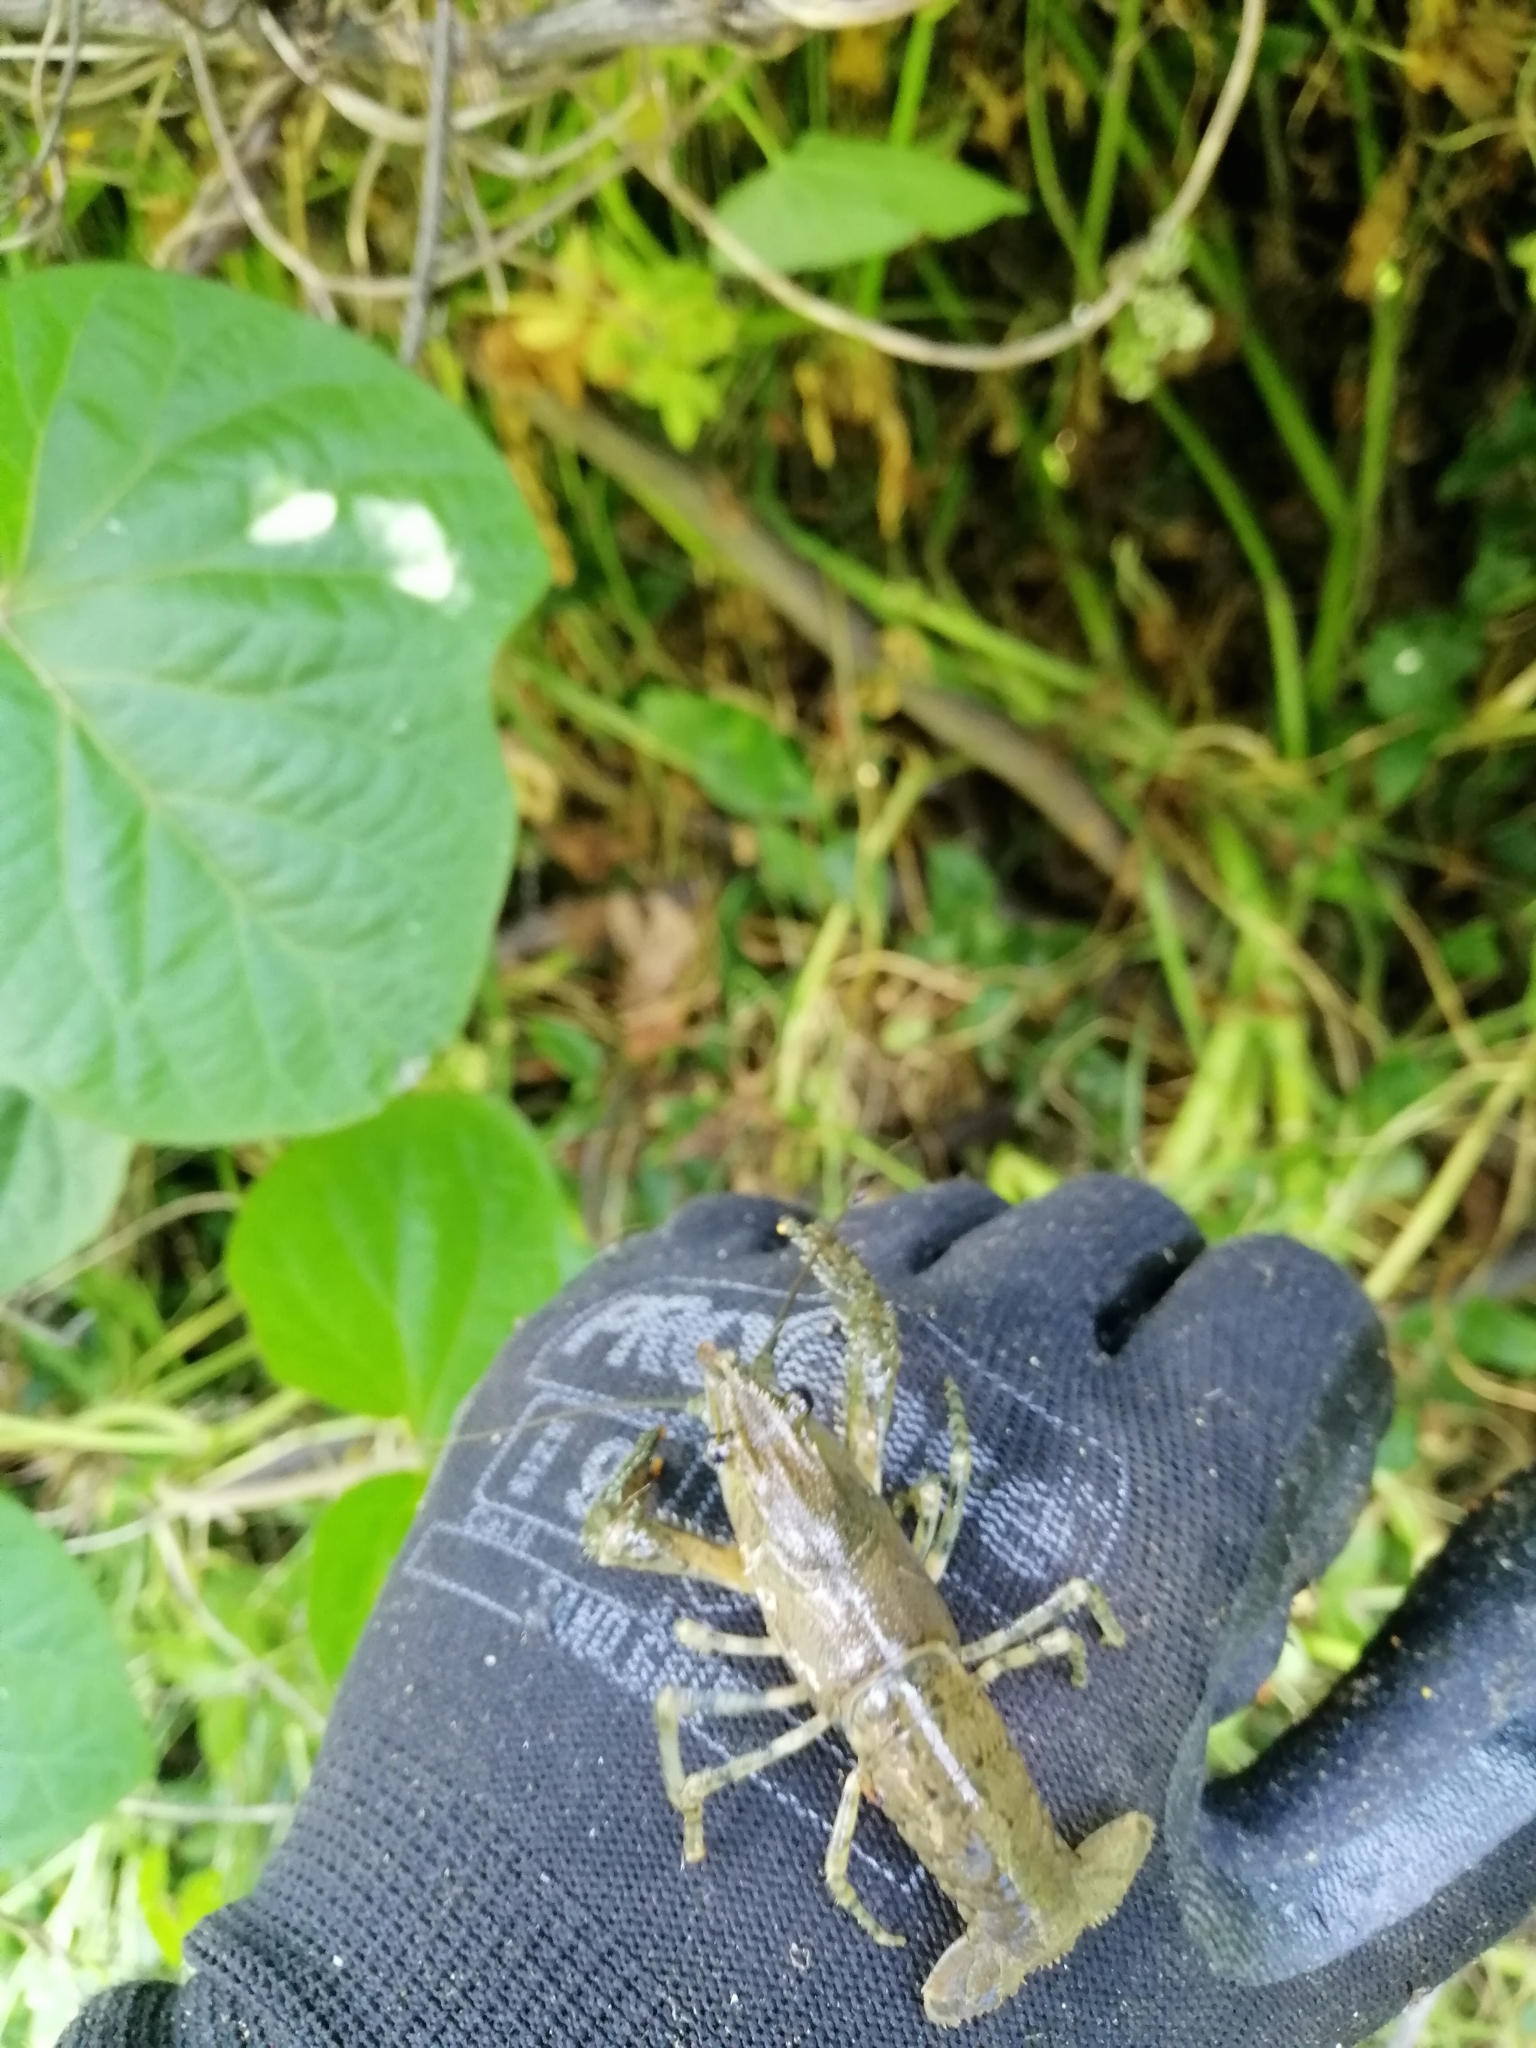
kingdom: Animalia
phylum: Arthropoda
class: Malacostraca
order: Decapoda
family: Parastacidae
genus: Paranephrops
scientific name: Paranephrops planifrons
